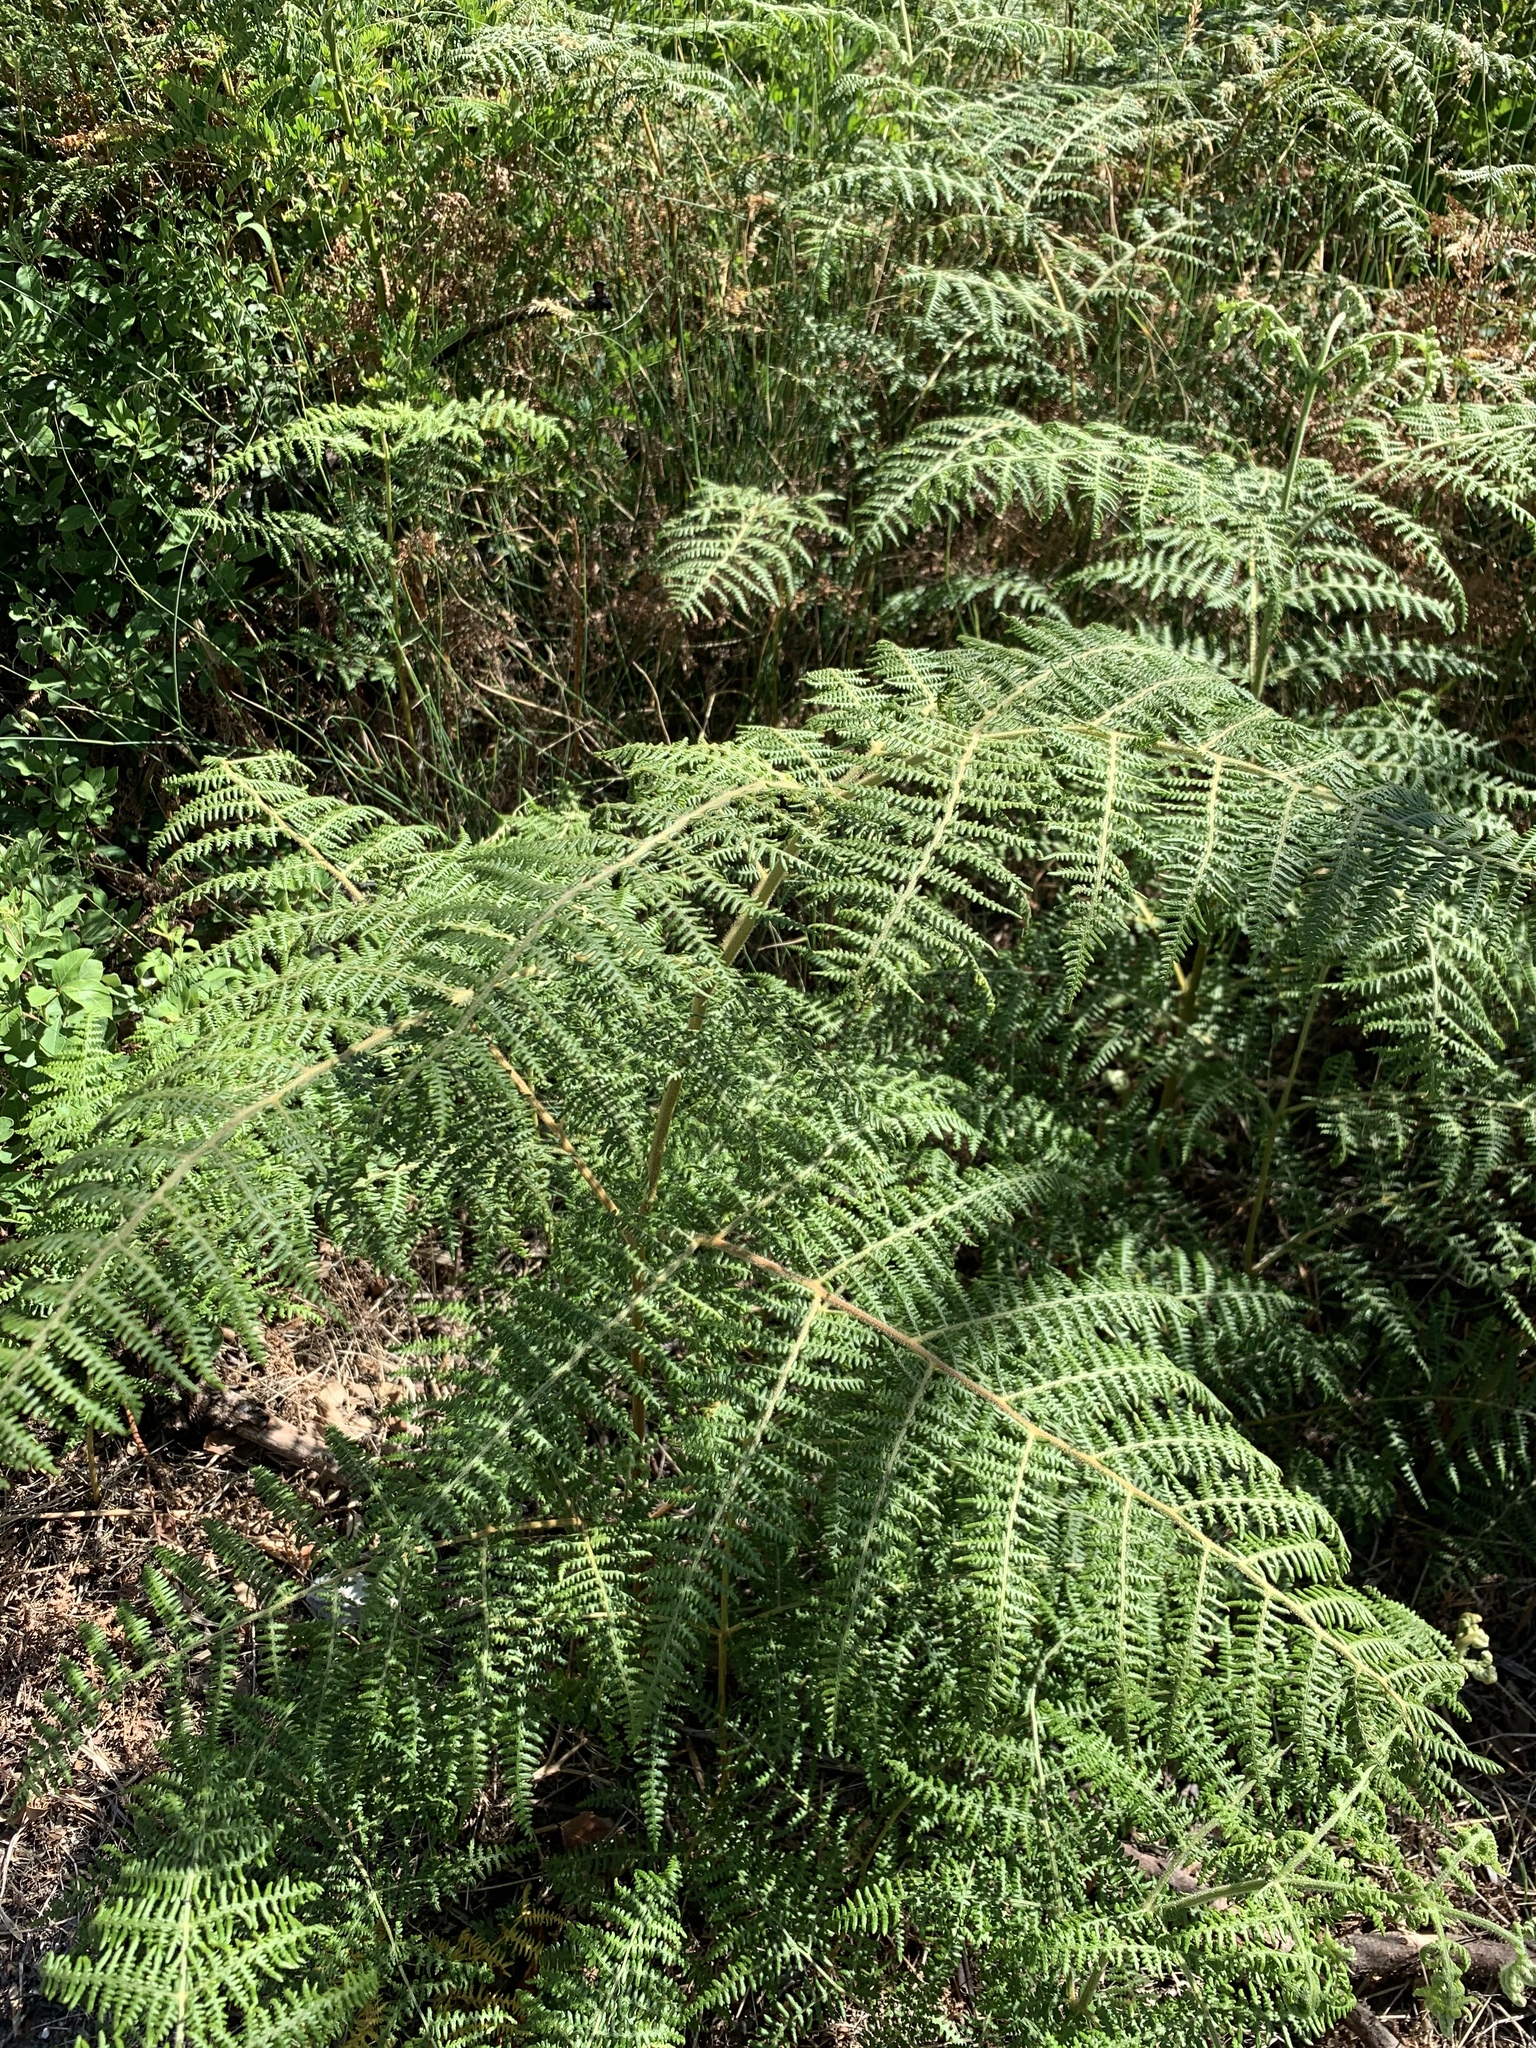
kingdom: Plantae
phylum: Tracheophyta
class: Polypodiopsida
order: Polypodiales
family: Dennstaedtiaceae
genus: Pteridium
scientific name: Pteridium aquilinum
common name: Bracken
